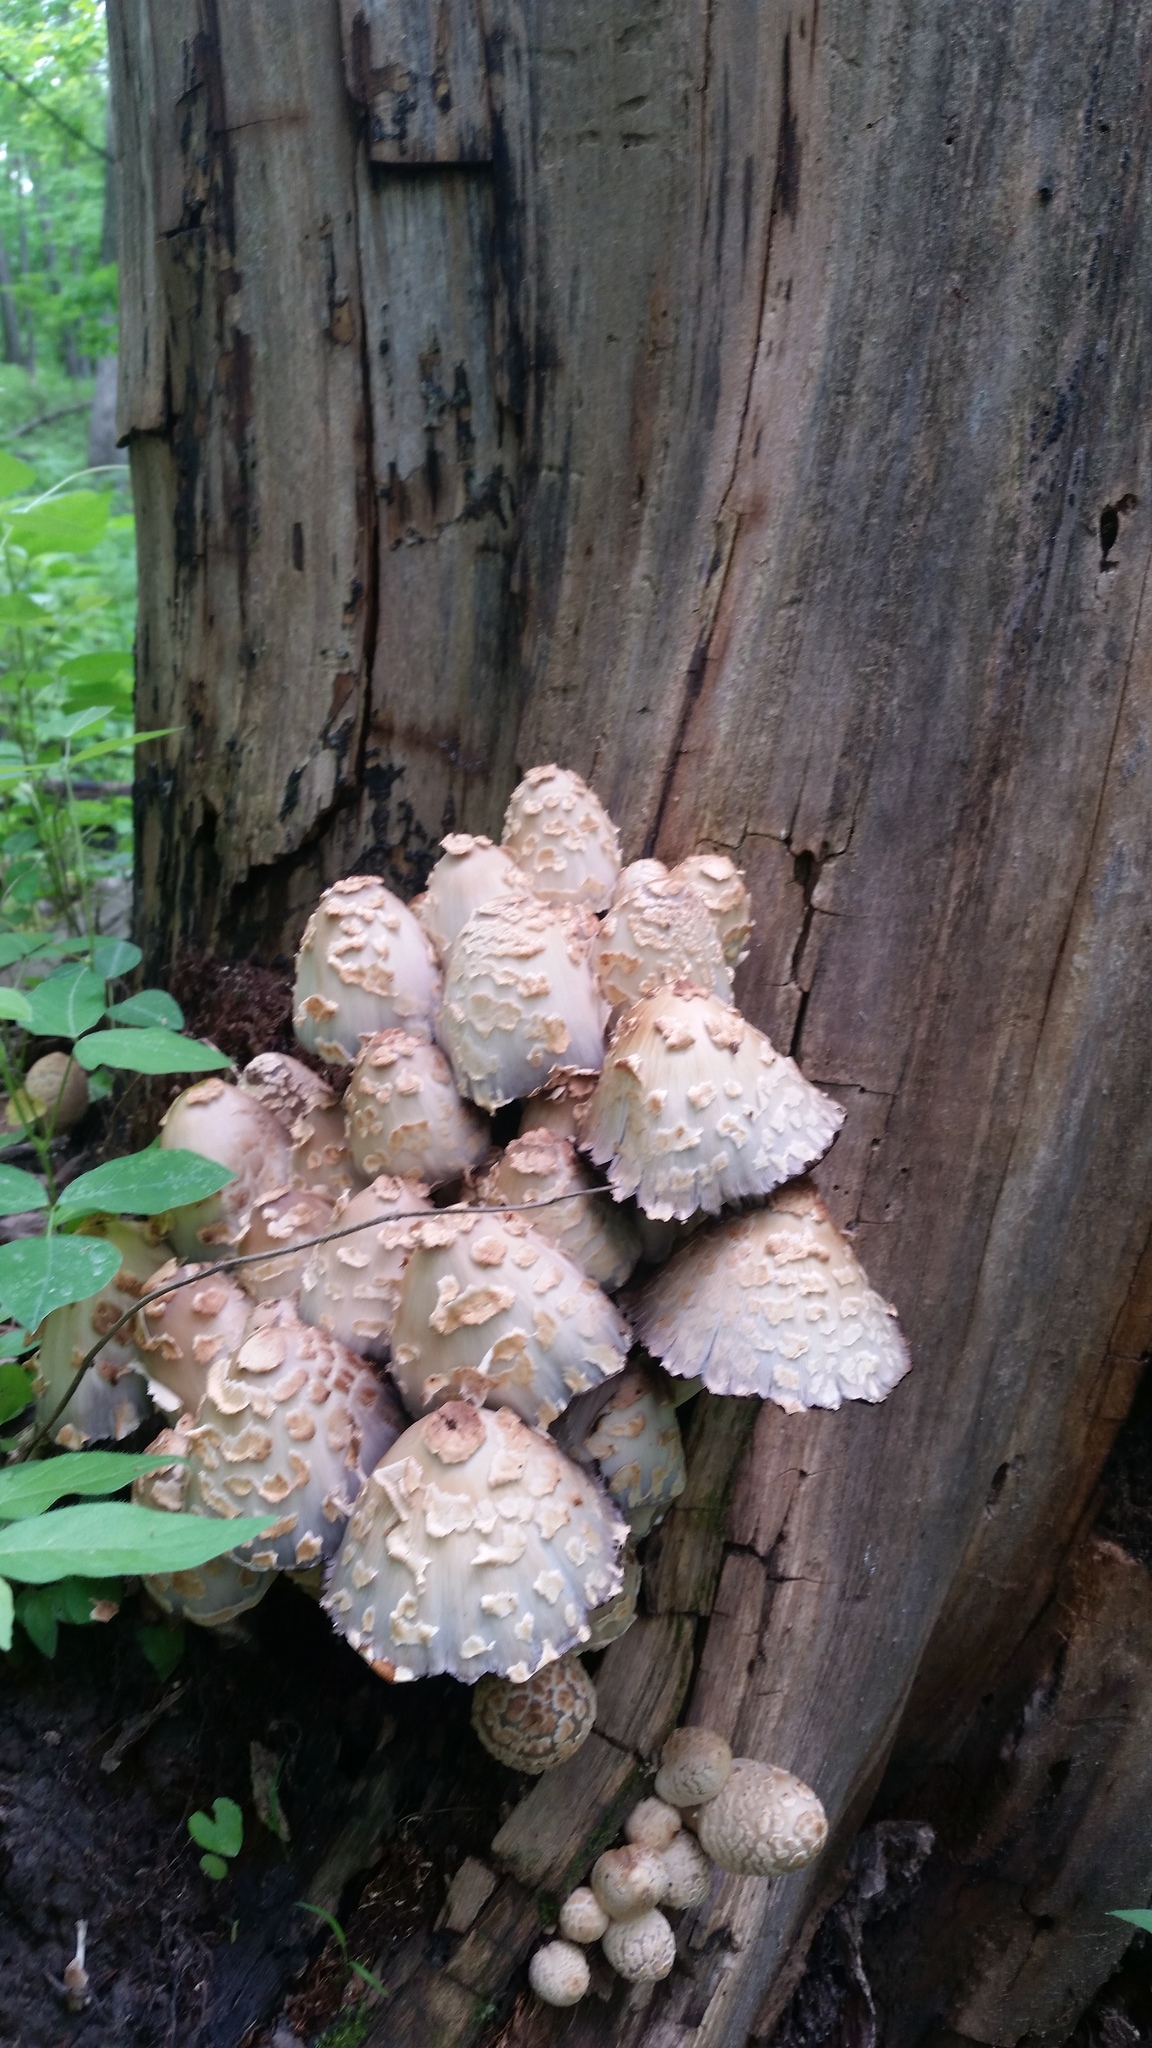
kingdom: Fungi
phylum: Basidiomycota
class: Agaricomycetes
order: Agaricales
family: Psathyrellaceae
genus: Coprinopsis
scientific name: Coprinopsis variegata
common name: Scaly ink cap
